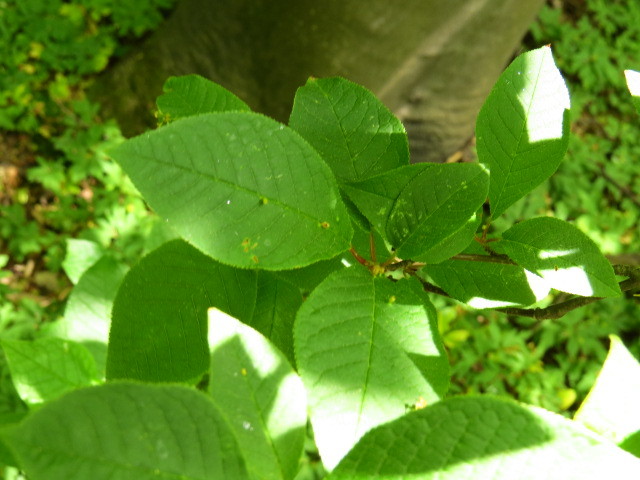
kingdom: Plantae
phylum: Tracheophyta
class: Magnoliopsida
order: Rosales
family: Rosaceae
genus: Prunus
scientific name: Prunus padus
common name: Bird cherry
